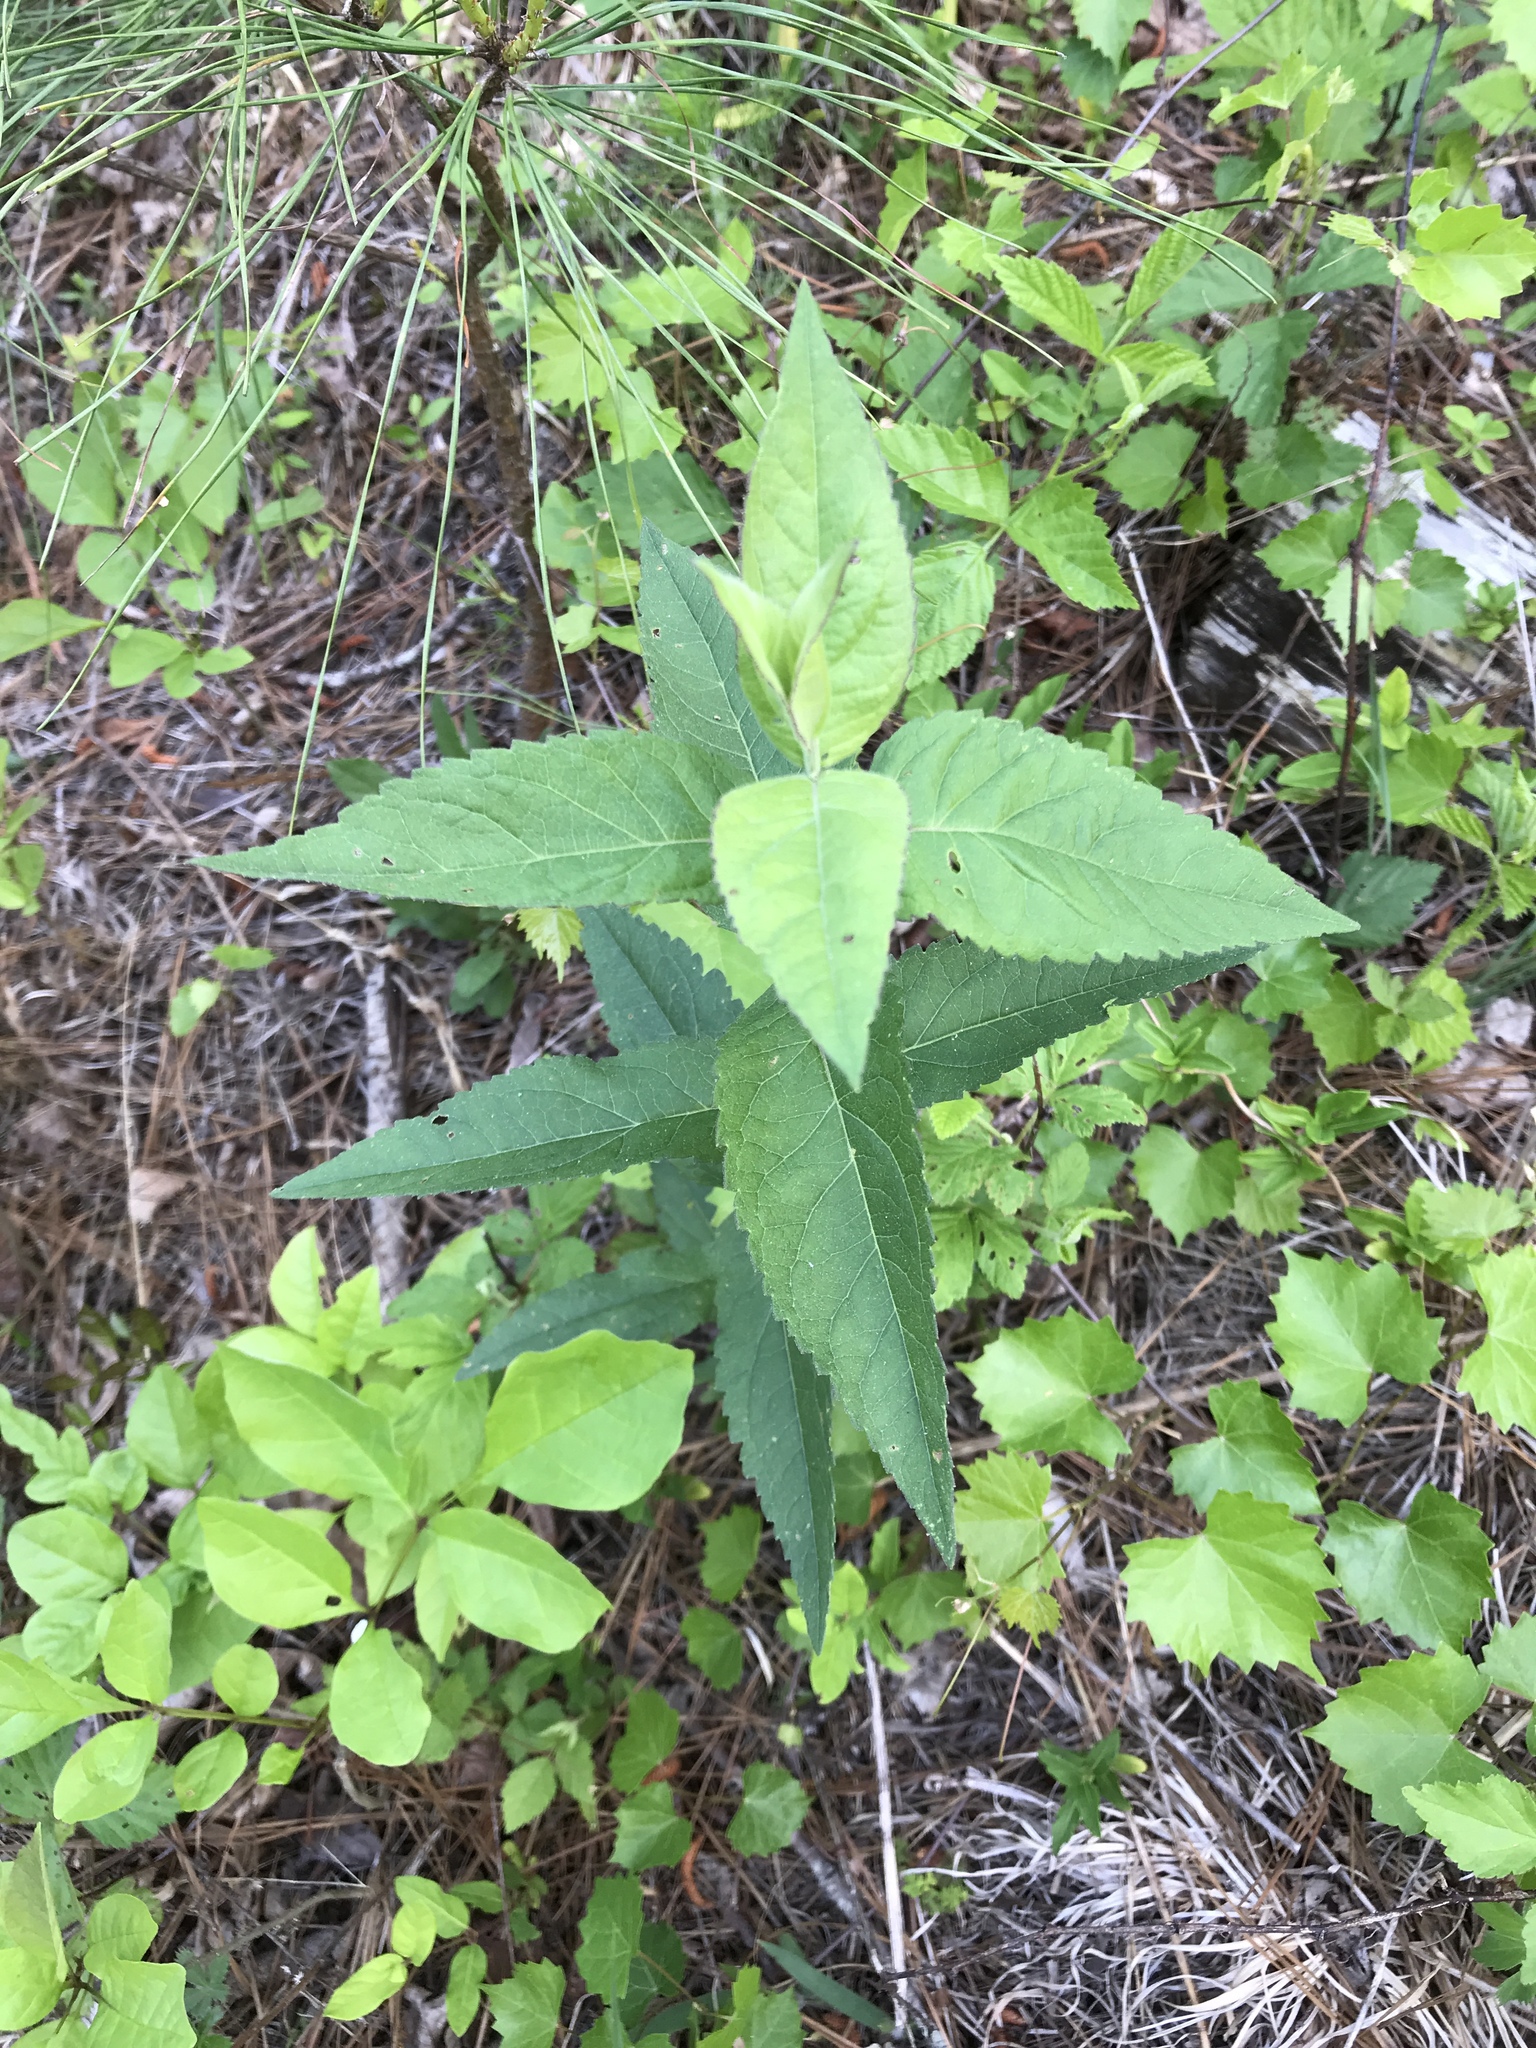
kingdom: Plantae
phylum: Tracheophyta
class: Magnoliopsida
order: Asterales
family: Asteraceae
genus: Eupatorium
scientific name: Eupatorium godfreyanum
